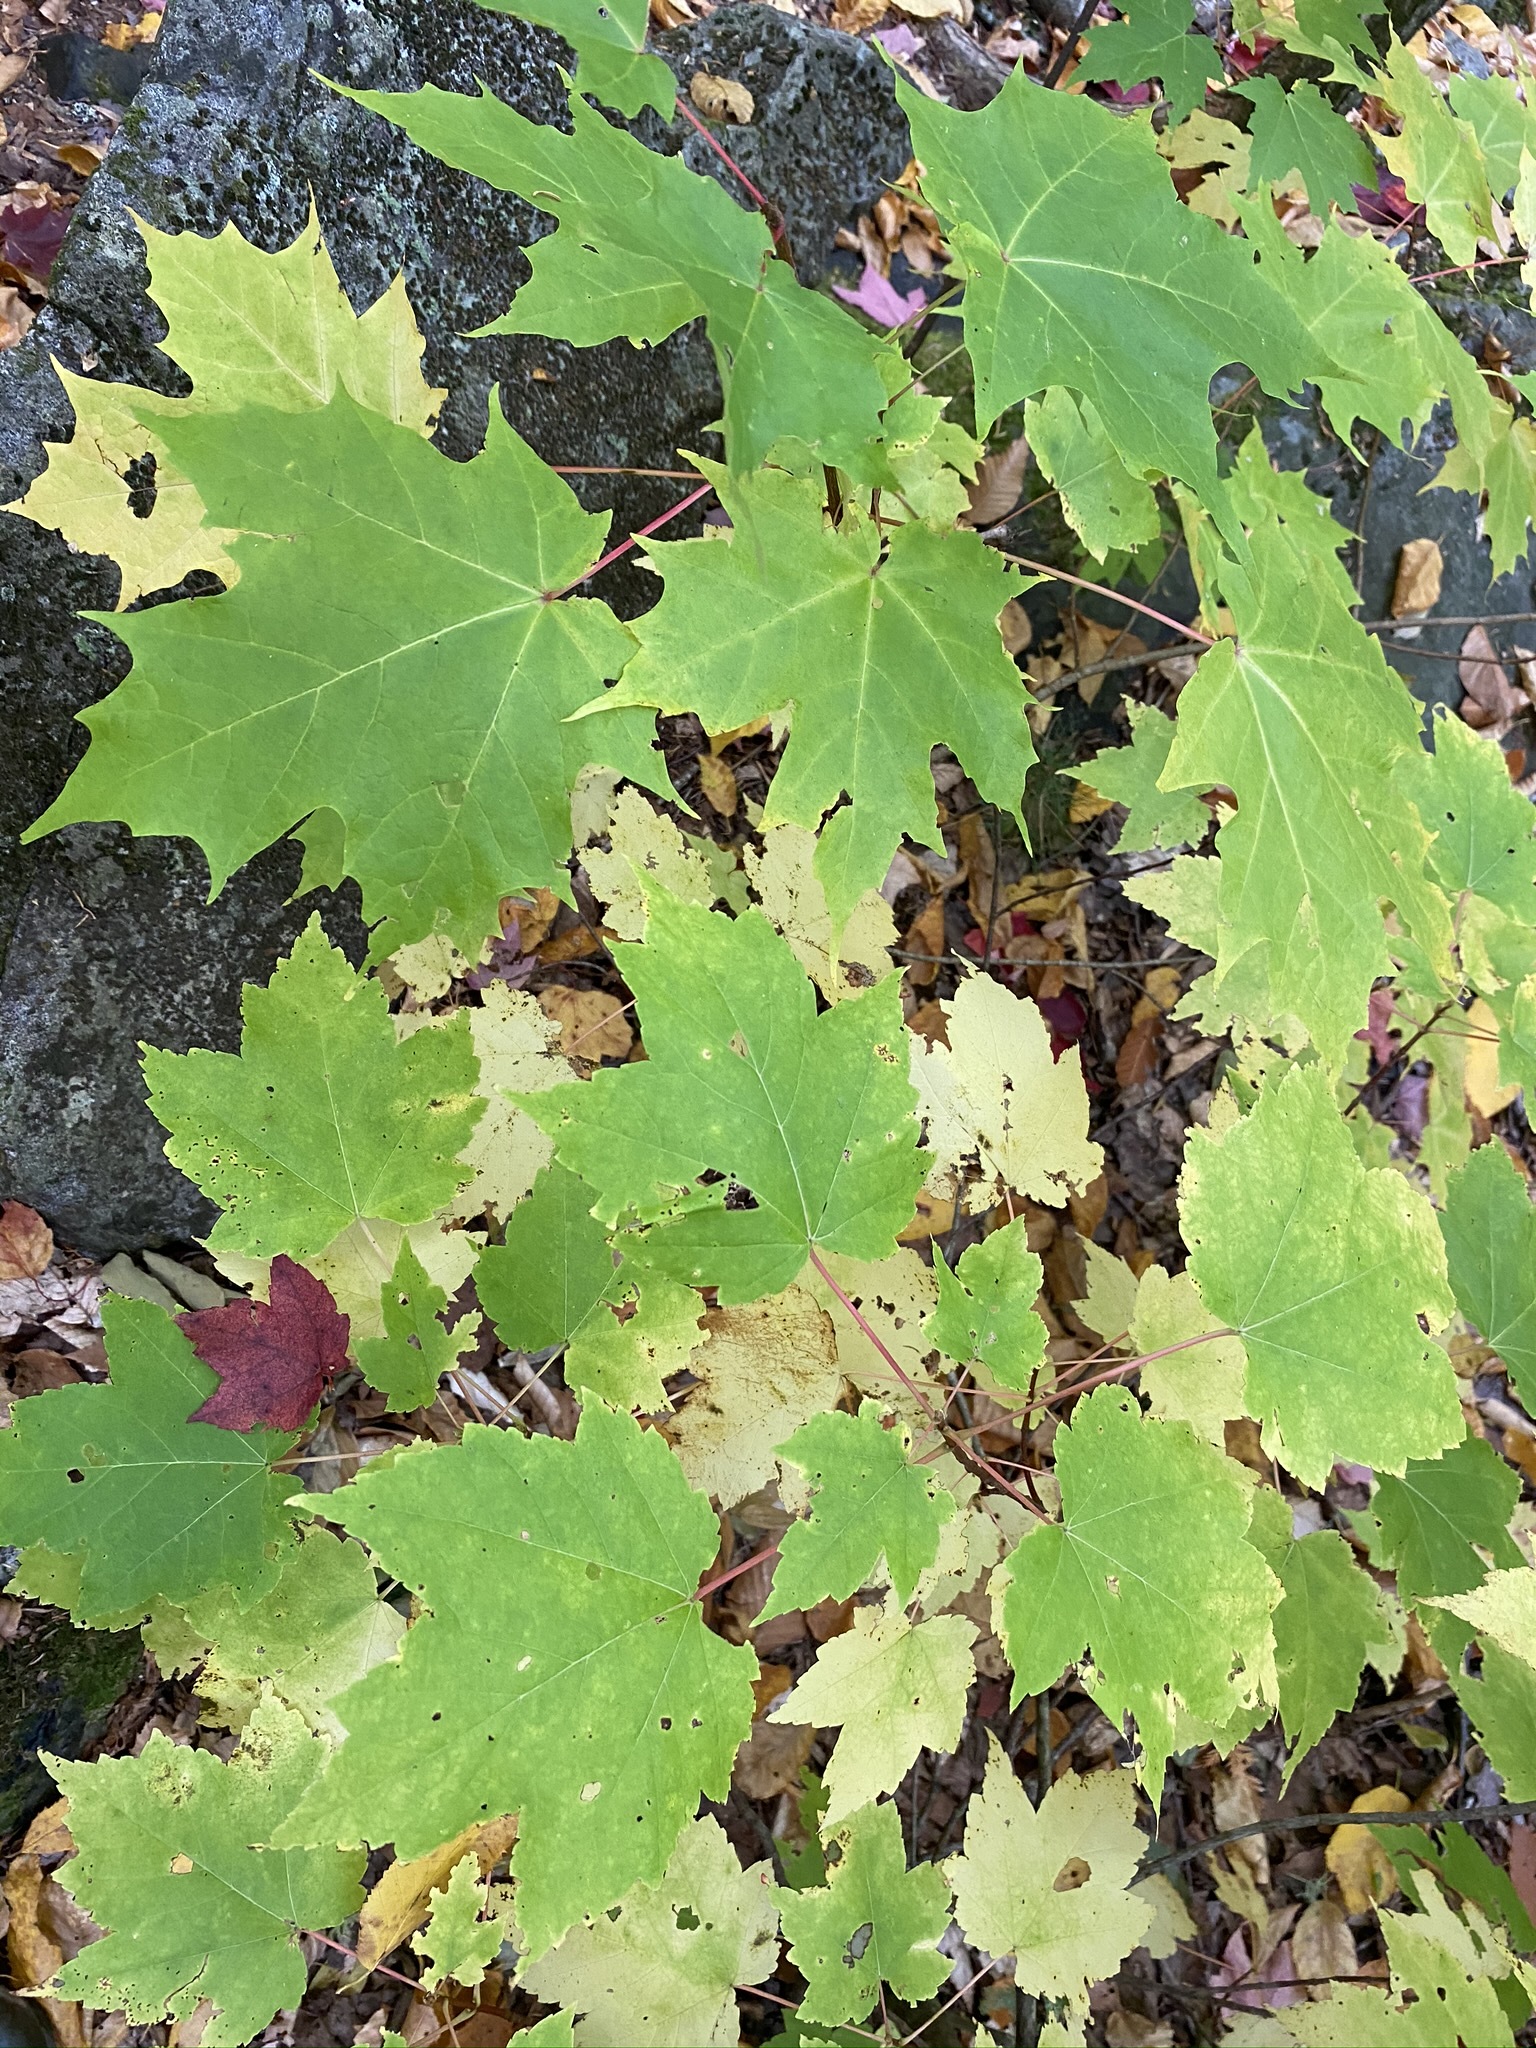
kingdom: Plantae
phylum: Tracheophyta
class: Magnoliopsida
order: Sapindales
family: Sapindaceae
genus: Acer
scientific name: Acer saccharum
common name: Sugar maple
